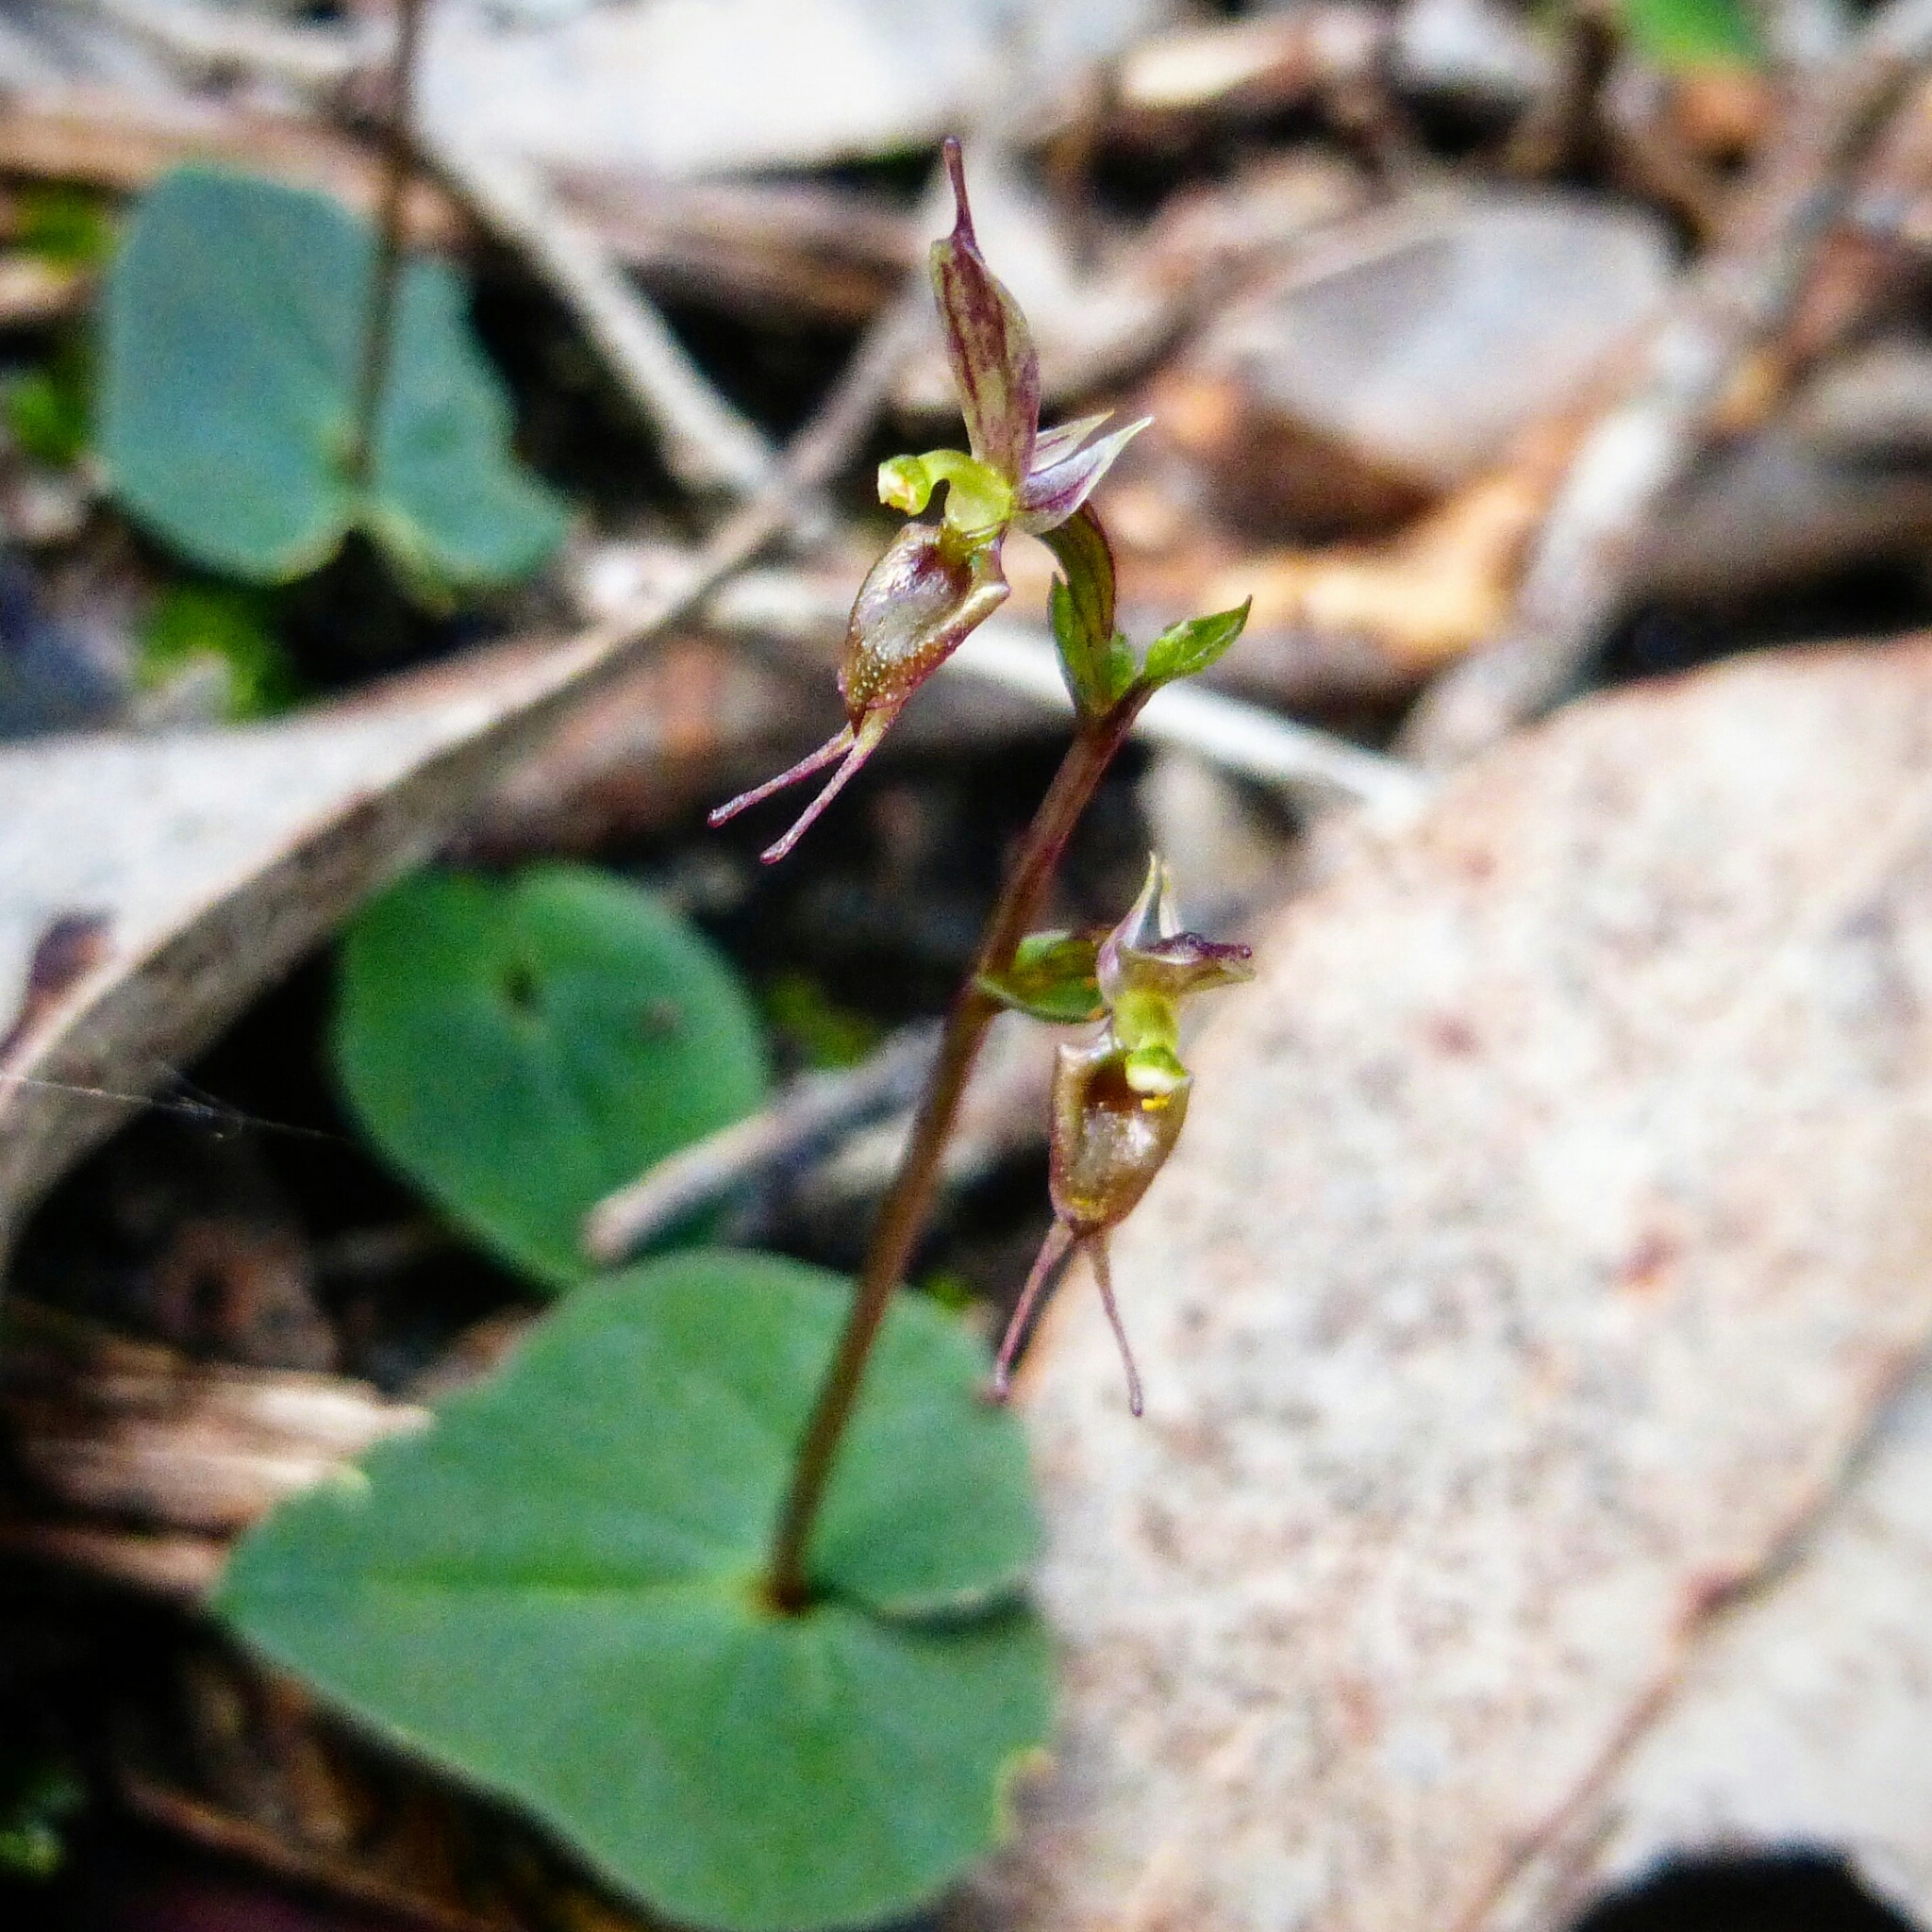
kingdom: Plantae
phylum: Tracheophyta
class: Liliopsida
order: Asparagales
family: Orchidaceae
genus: Acianthus
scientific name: Acianthus pusillus
